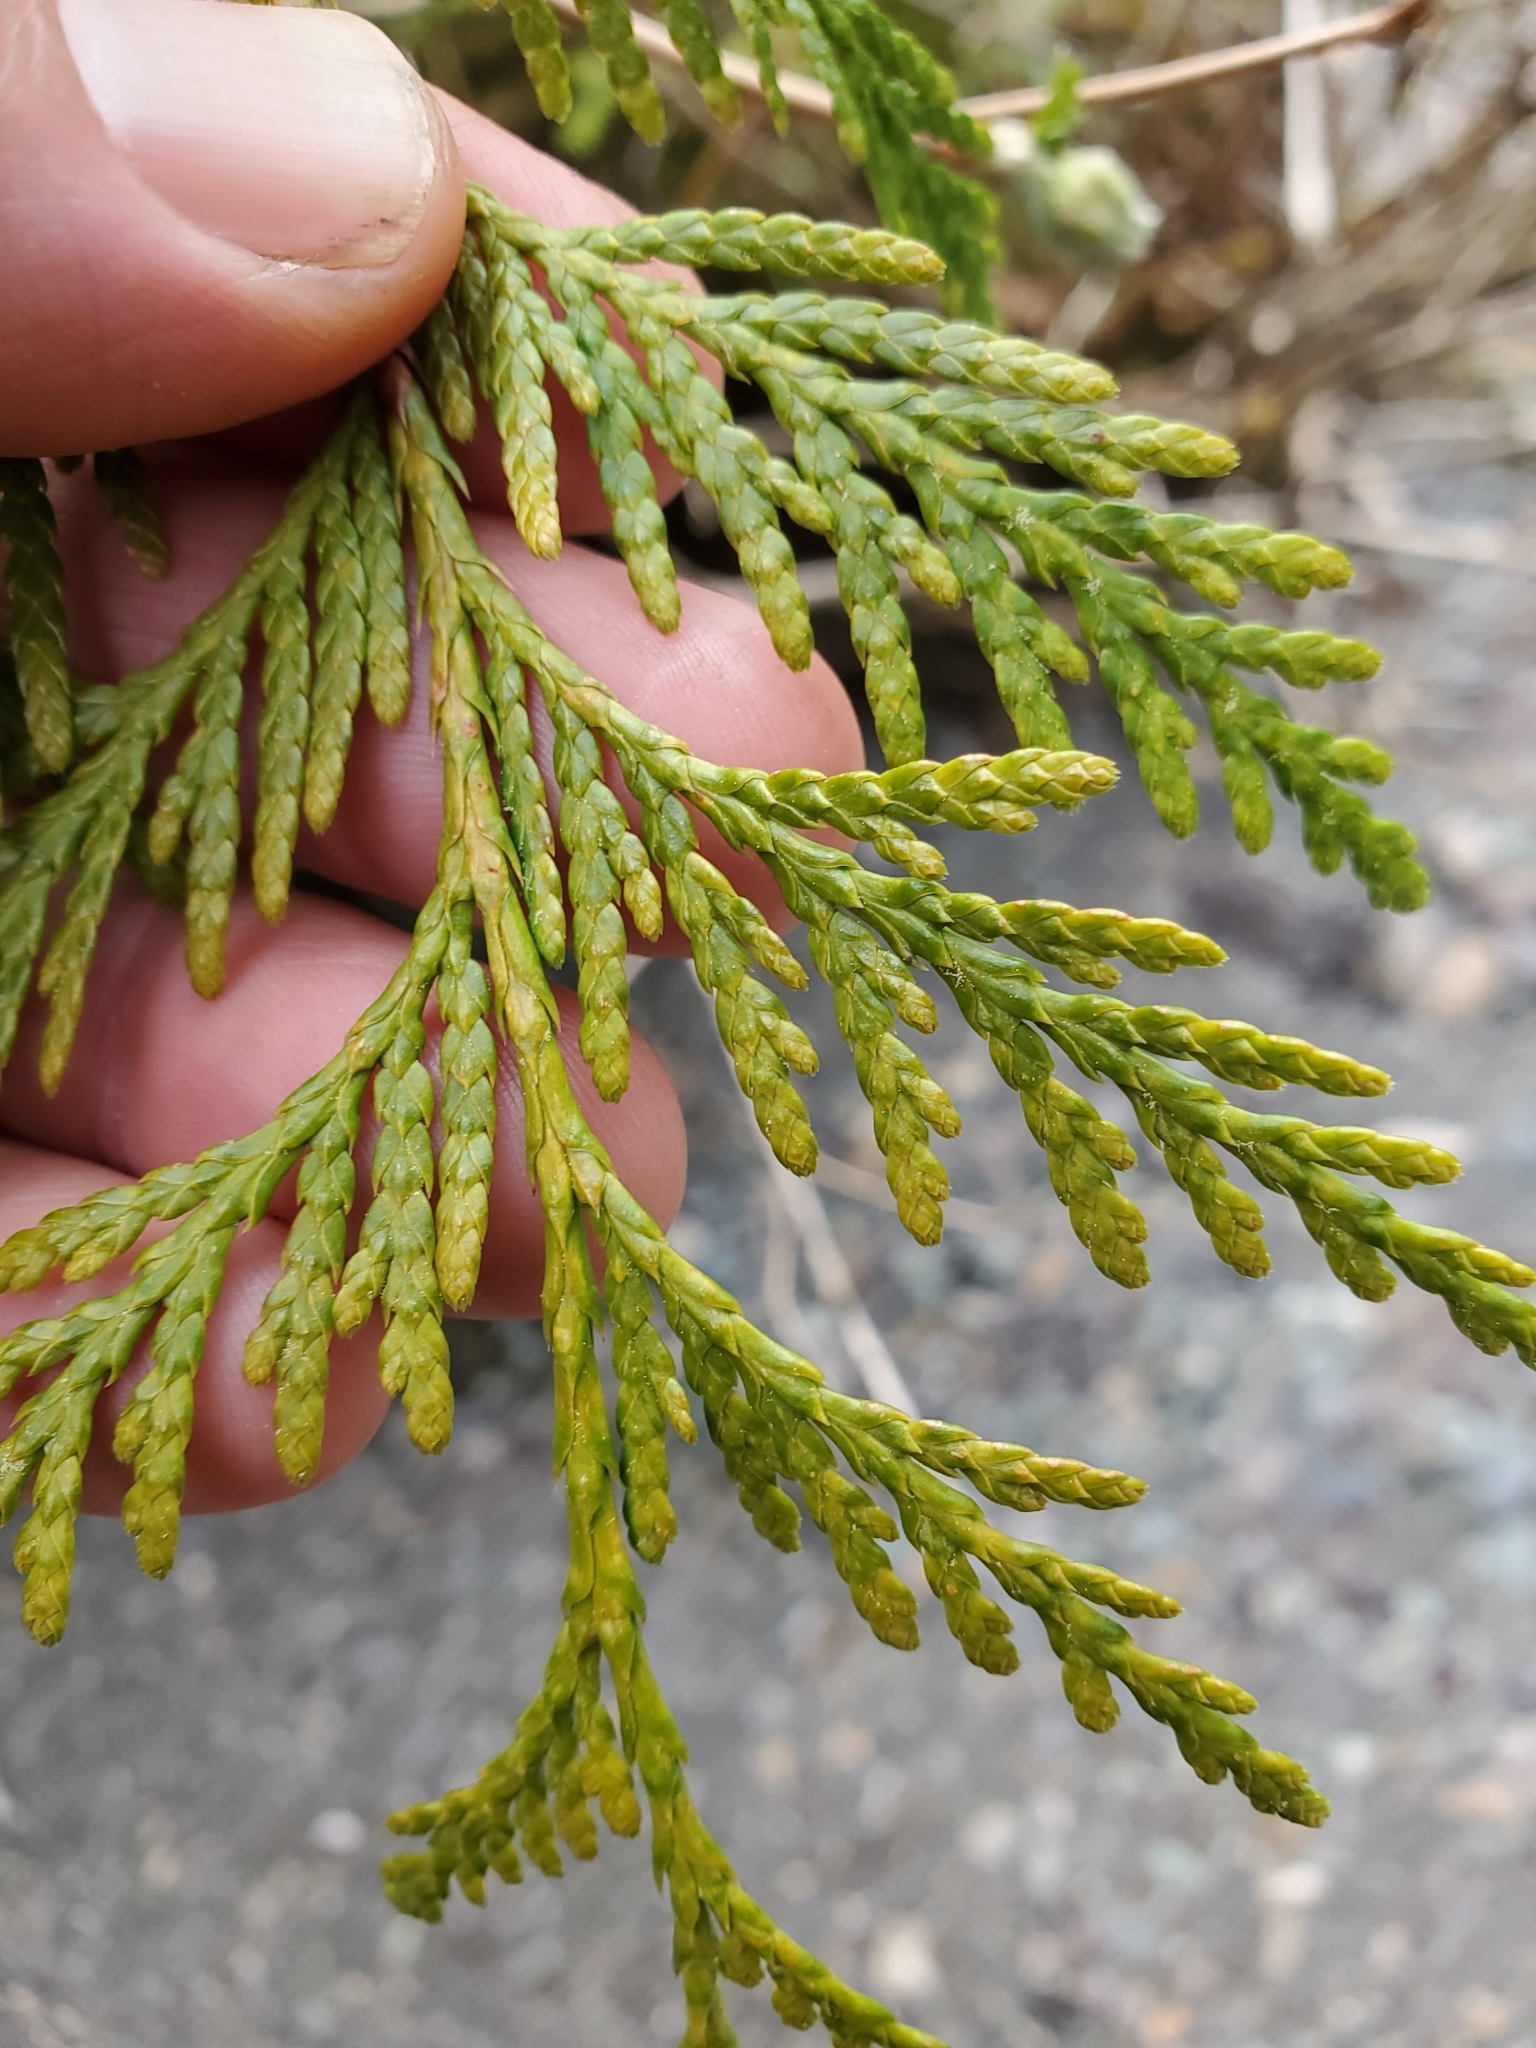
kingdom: Plantae
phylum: Tracheophyta
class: Pinopsida
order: Pinales
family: Cupressaceae
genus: Thuja
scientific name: Thuja plicata
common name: Western red-cedar
